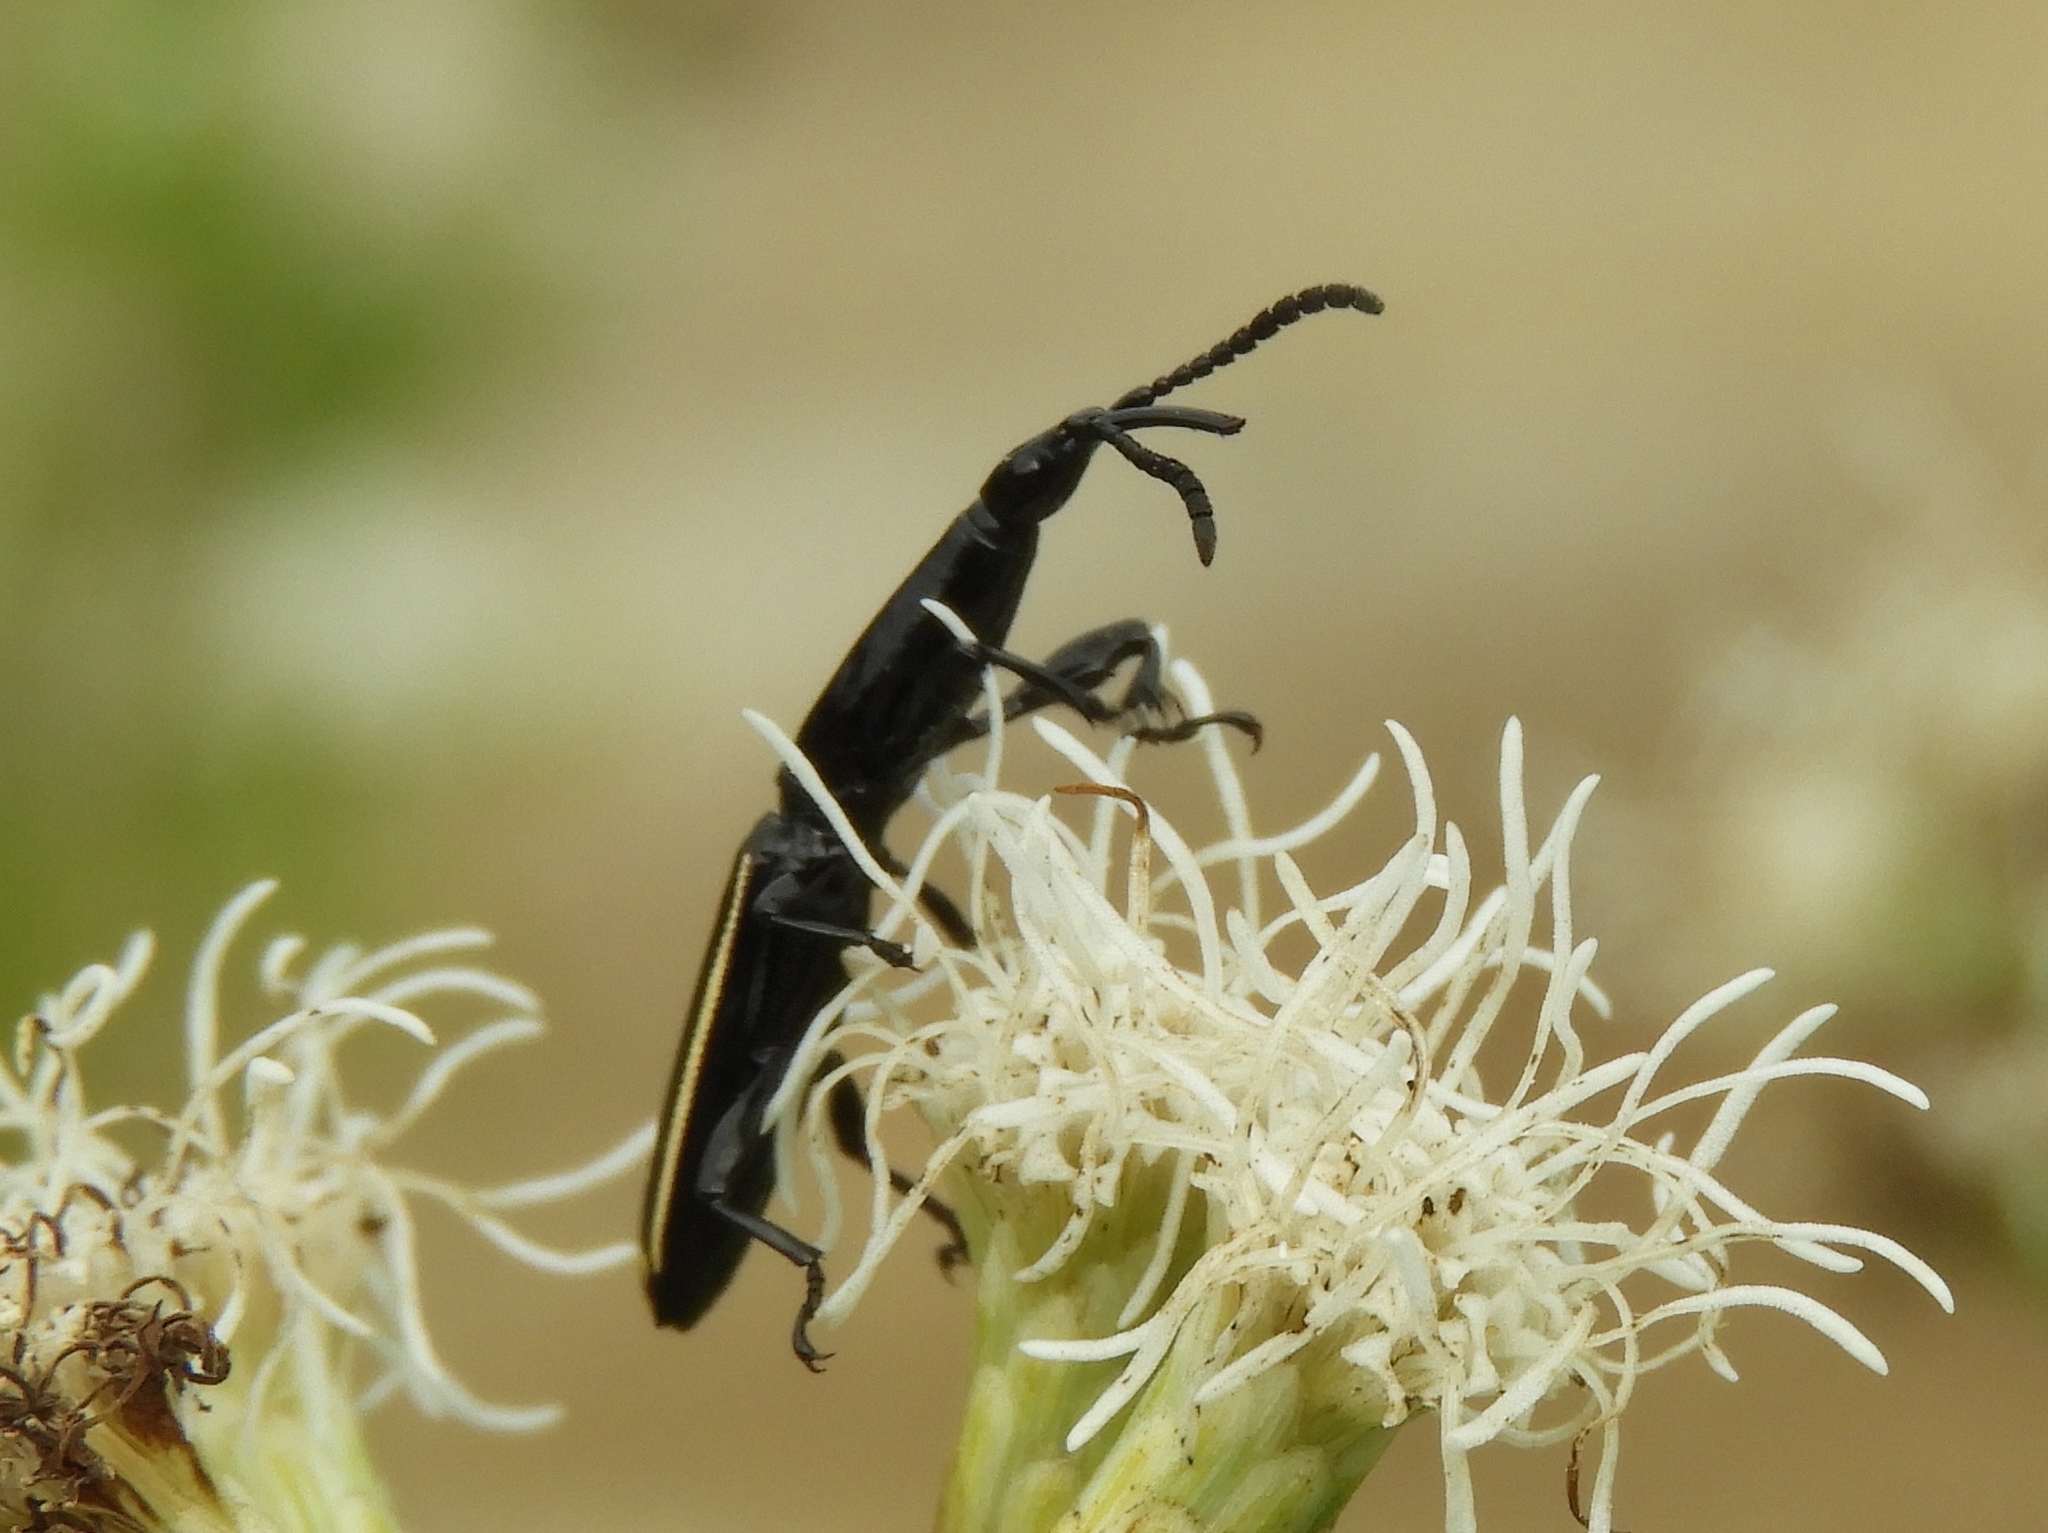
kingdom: Animalia
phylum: Arthropoda
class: Insecta
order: Coleoptera
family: Brentidae
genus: Brentus
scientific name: Brentus
